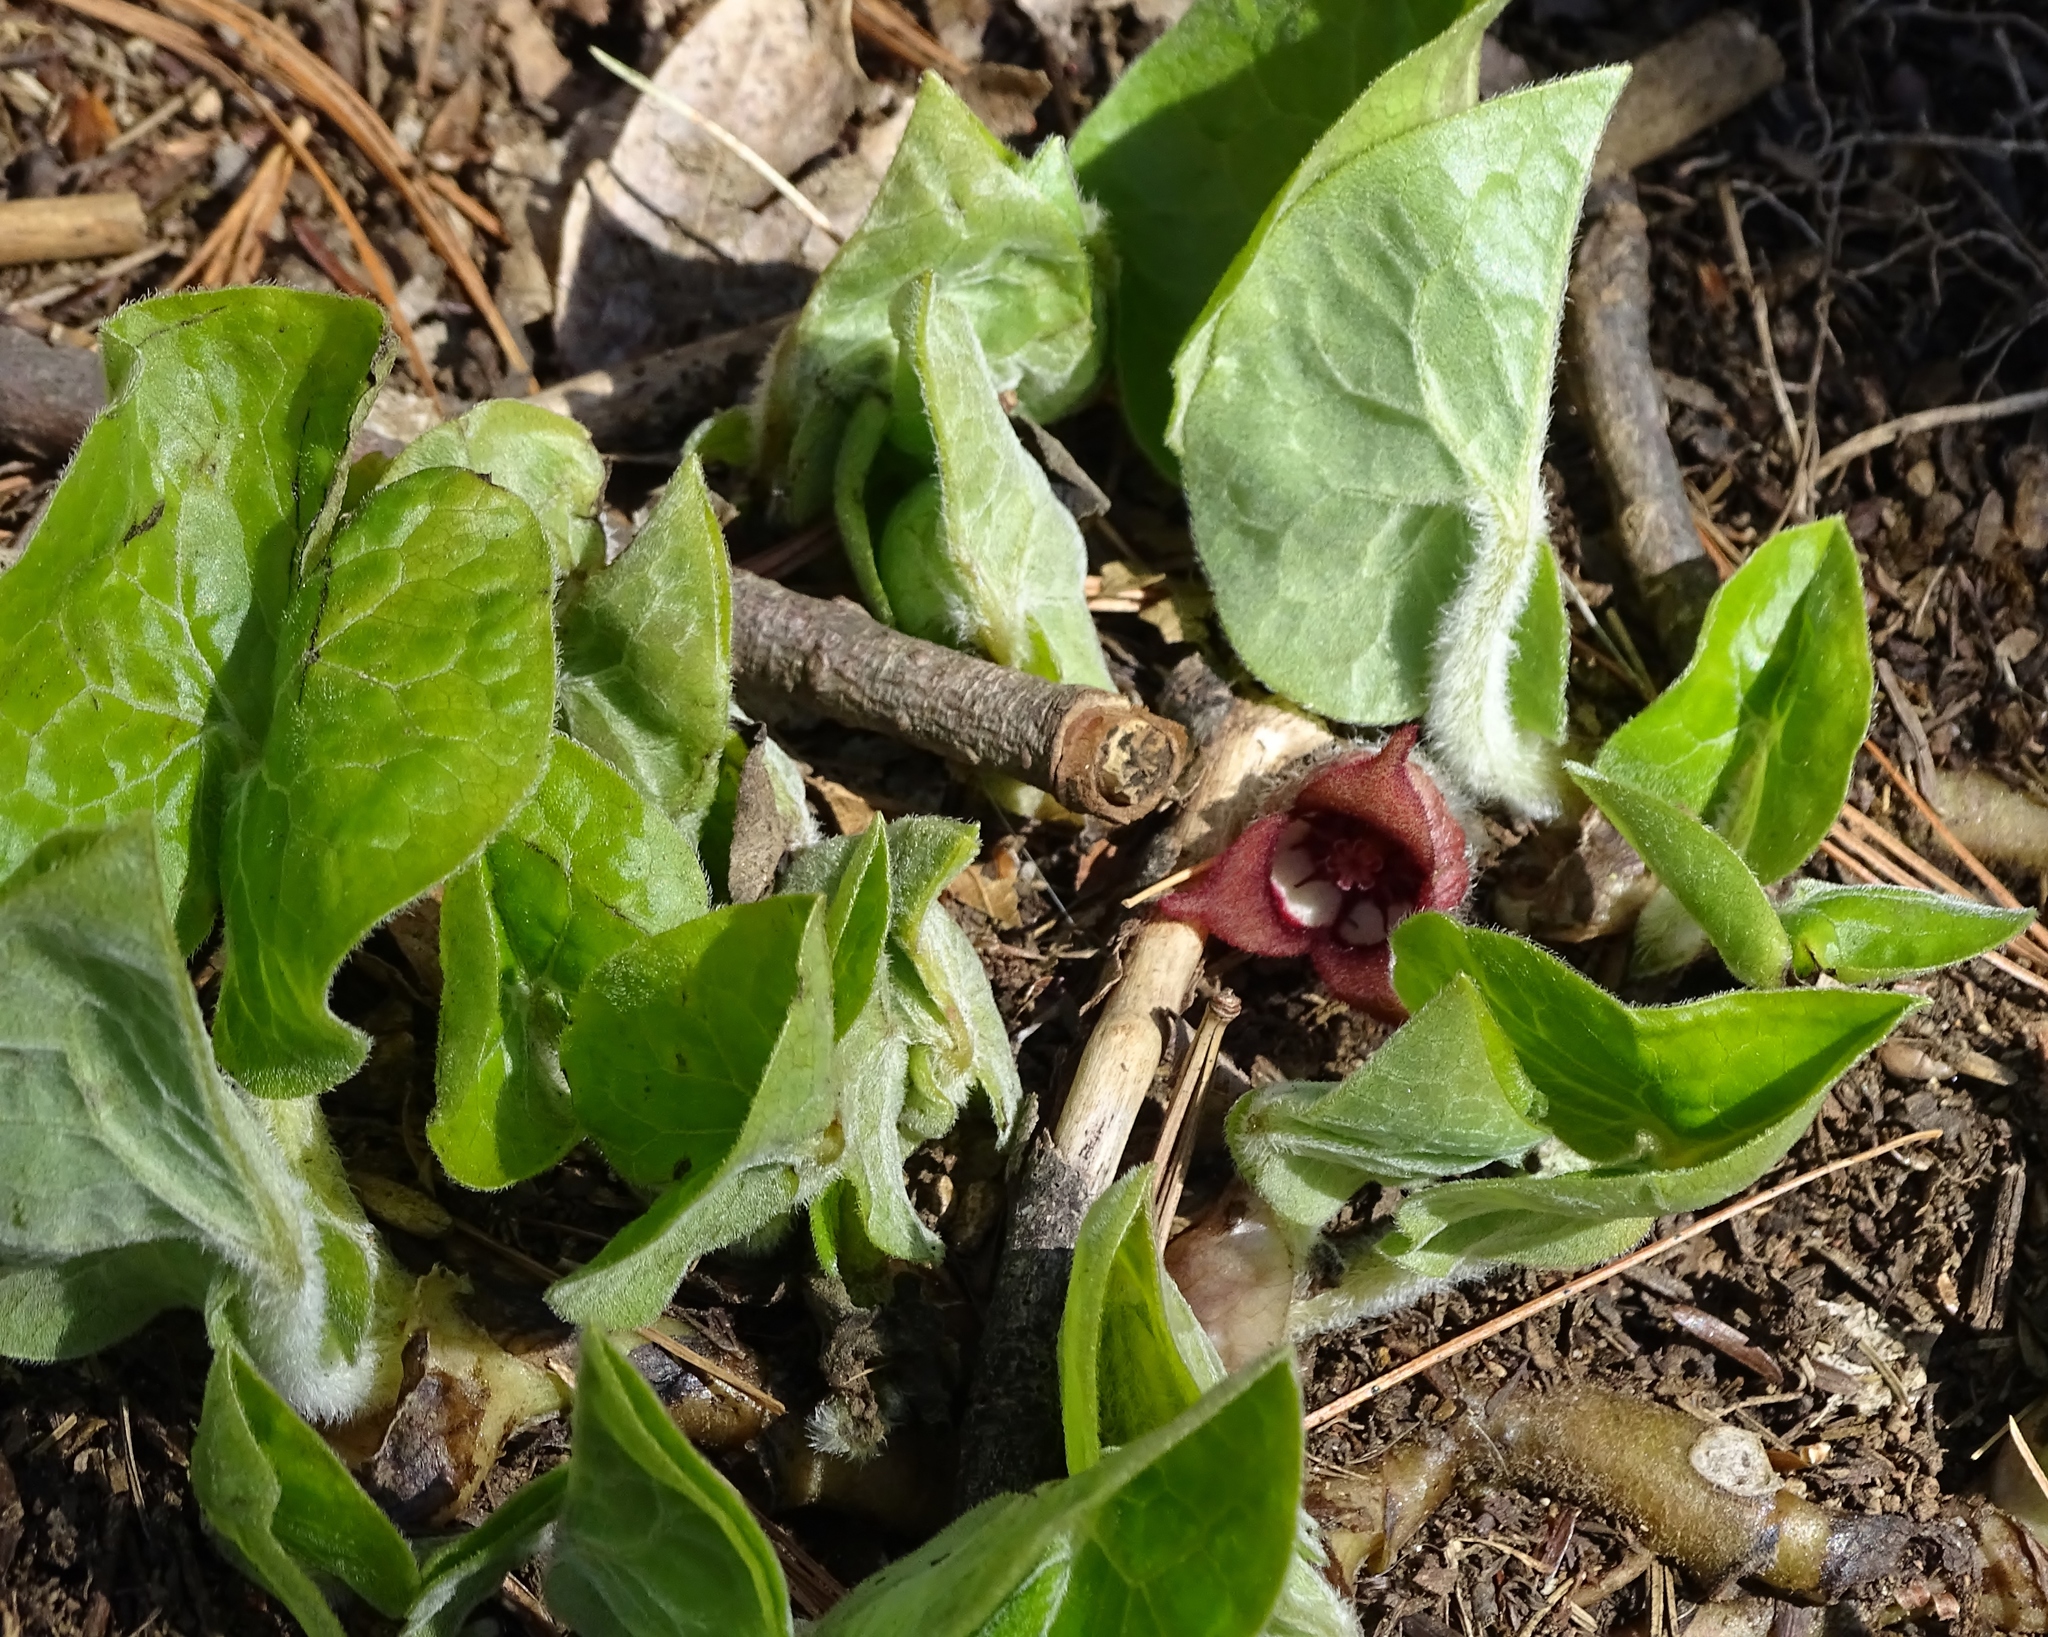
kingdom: Plantae
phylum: Tracheophyta
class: Magnoliopsida
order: Piperales
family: Aristolochiaceae
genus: Asarum
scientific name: Asarum canadense
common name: Wild ginger
